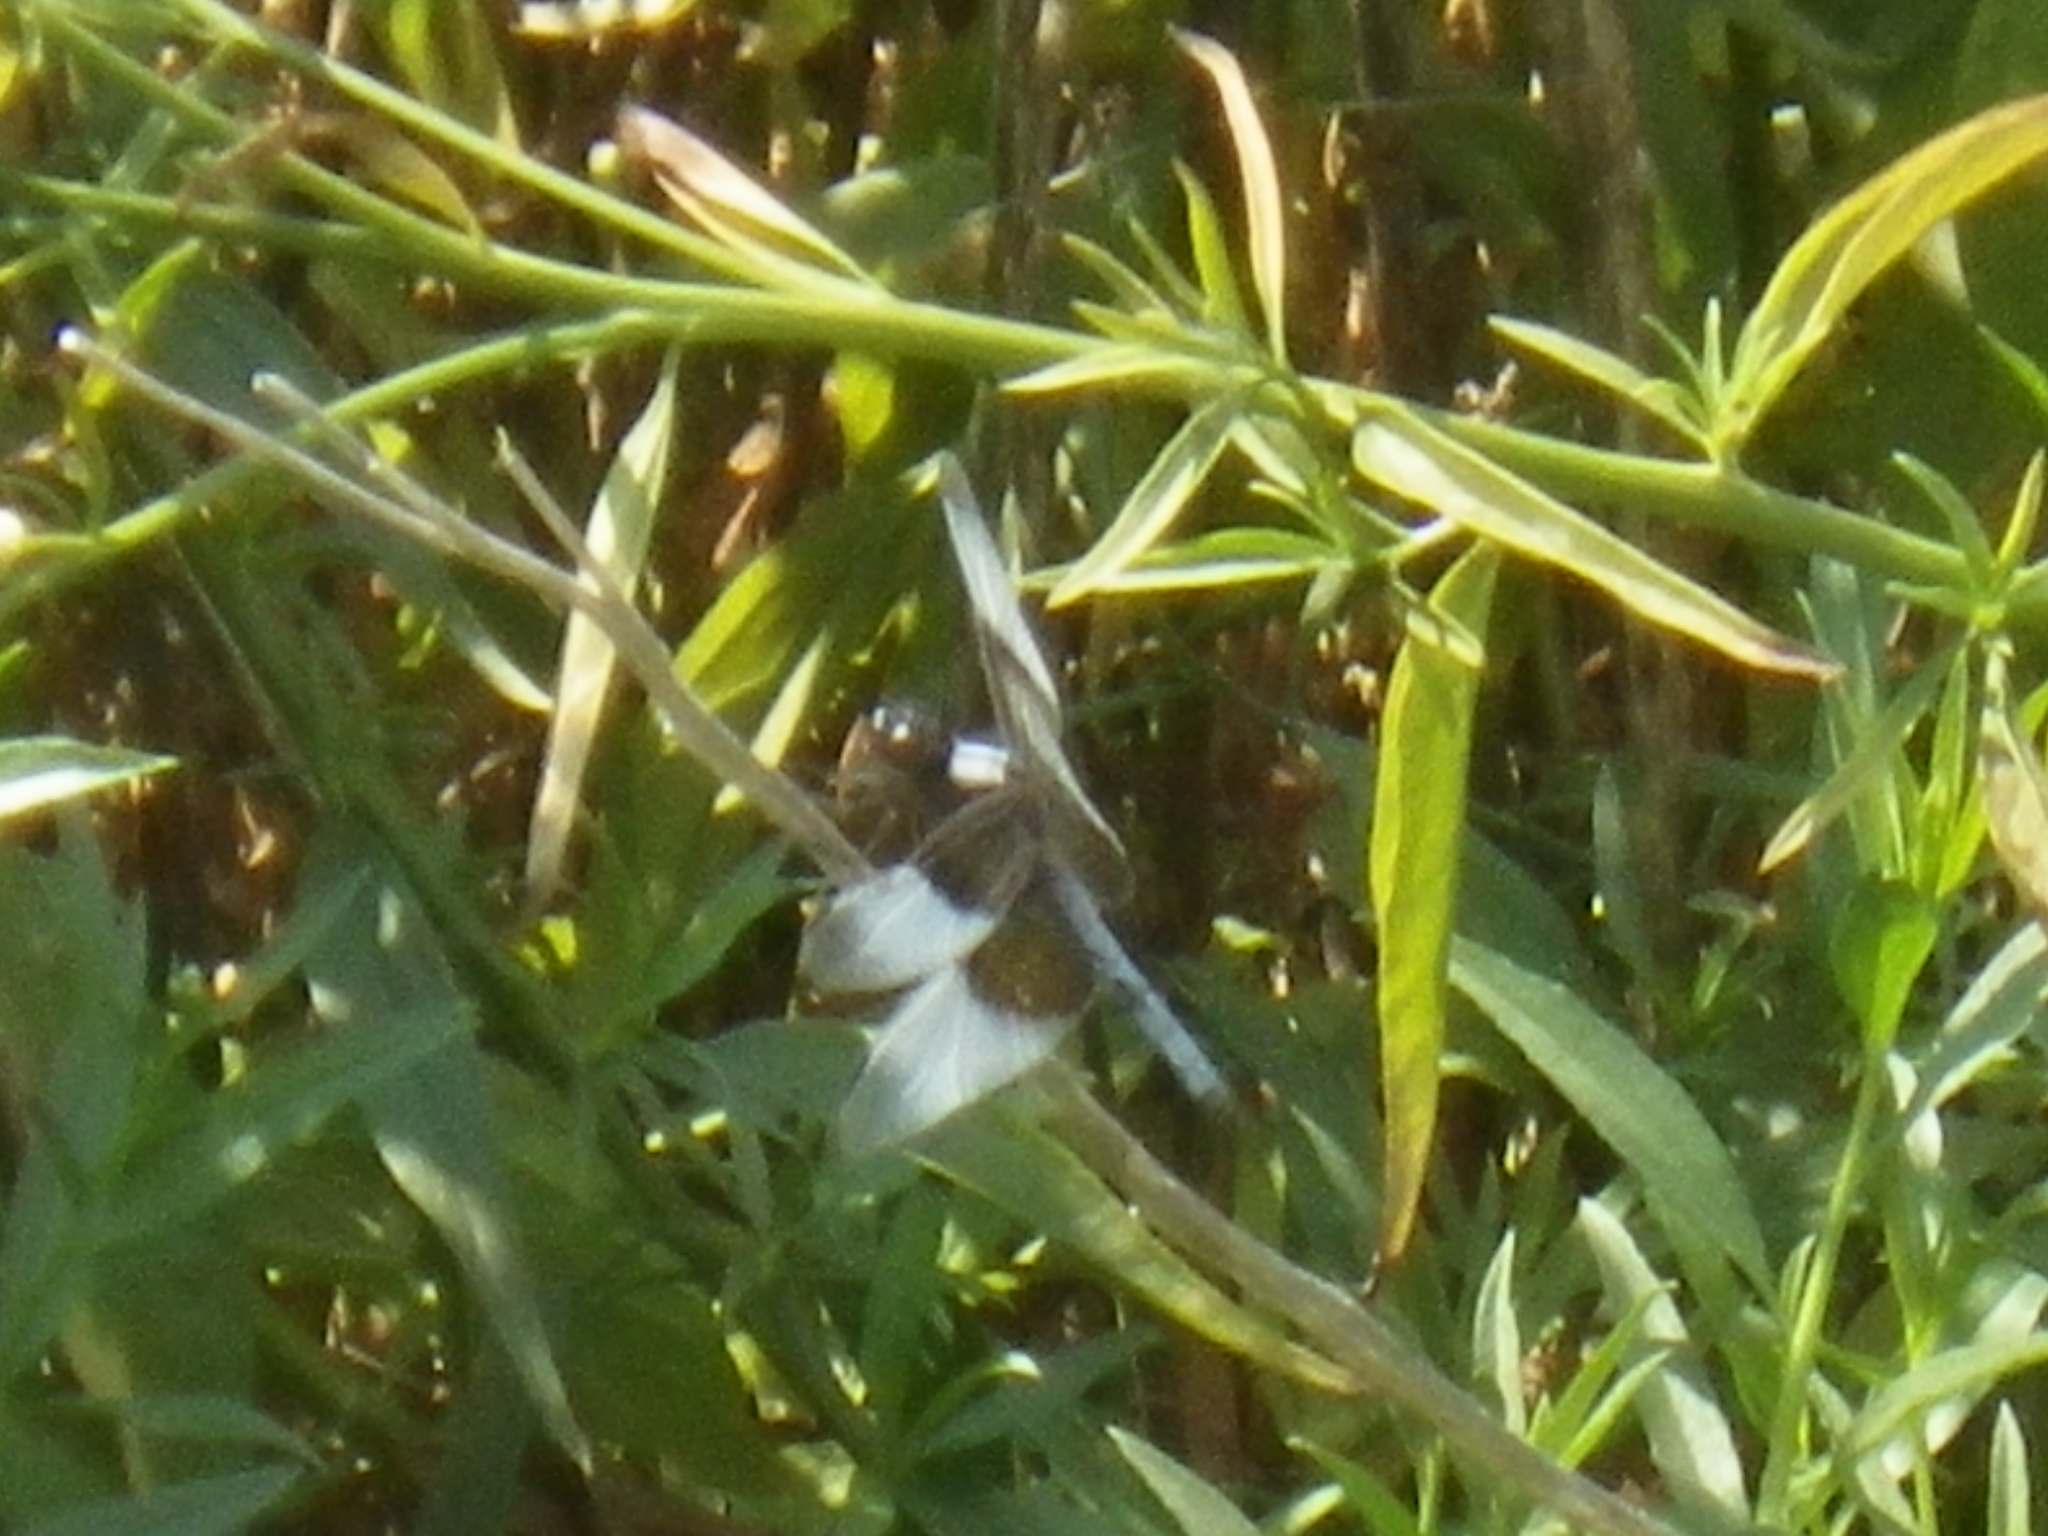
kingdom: Animalia
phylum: Arthropoda
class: Insecta
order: Odonata
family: Libellulidae
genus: Libellula
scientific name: Libellula luctuosa
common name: Widow skimmer
